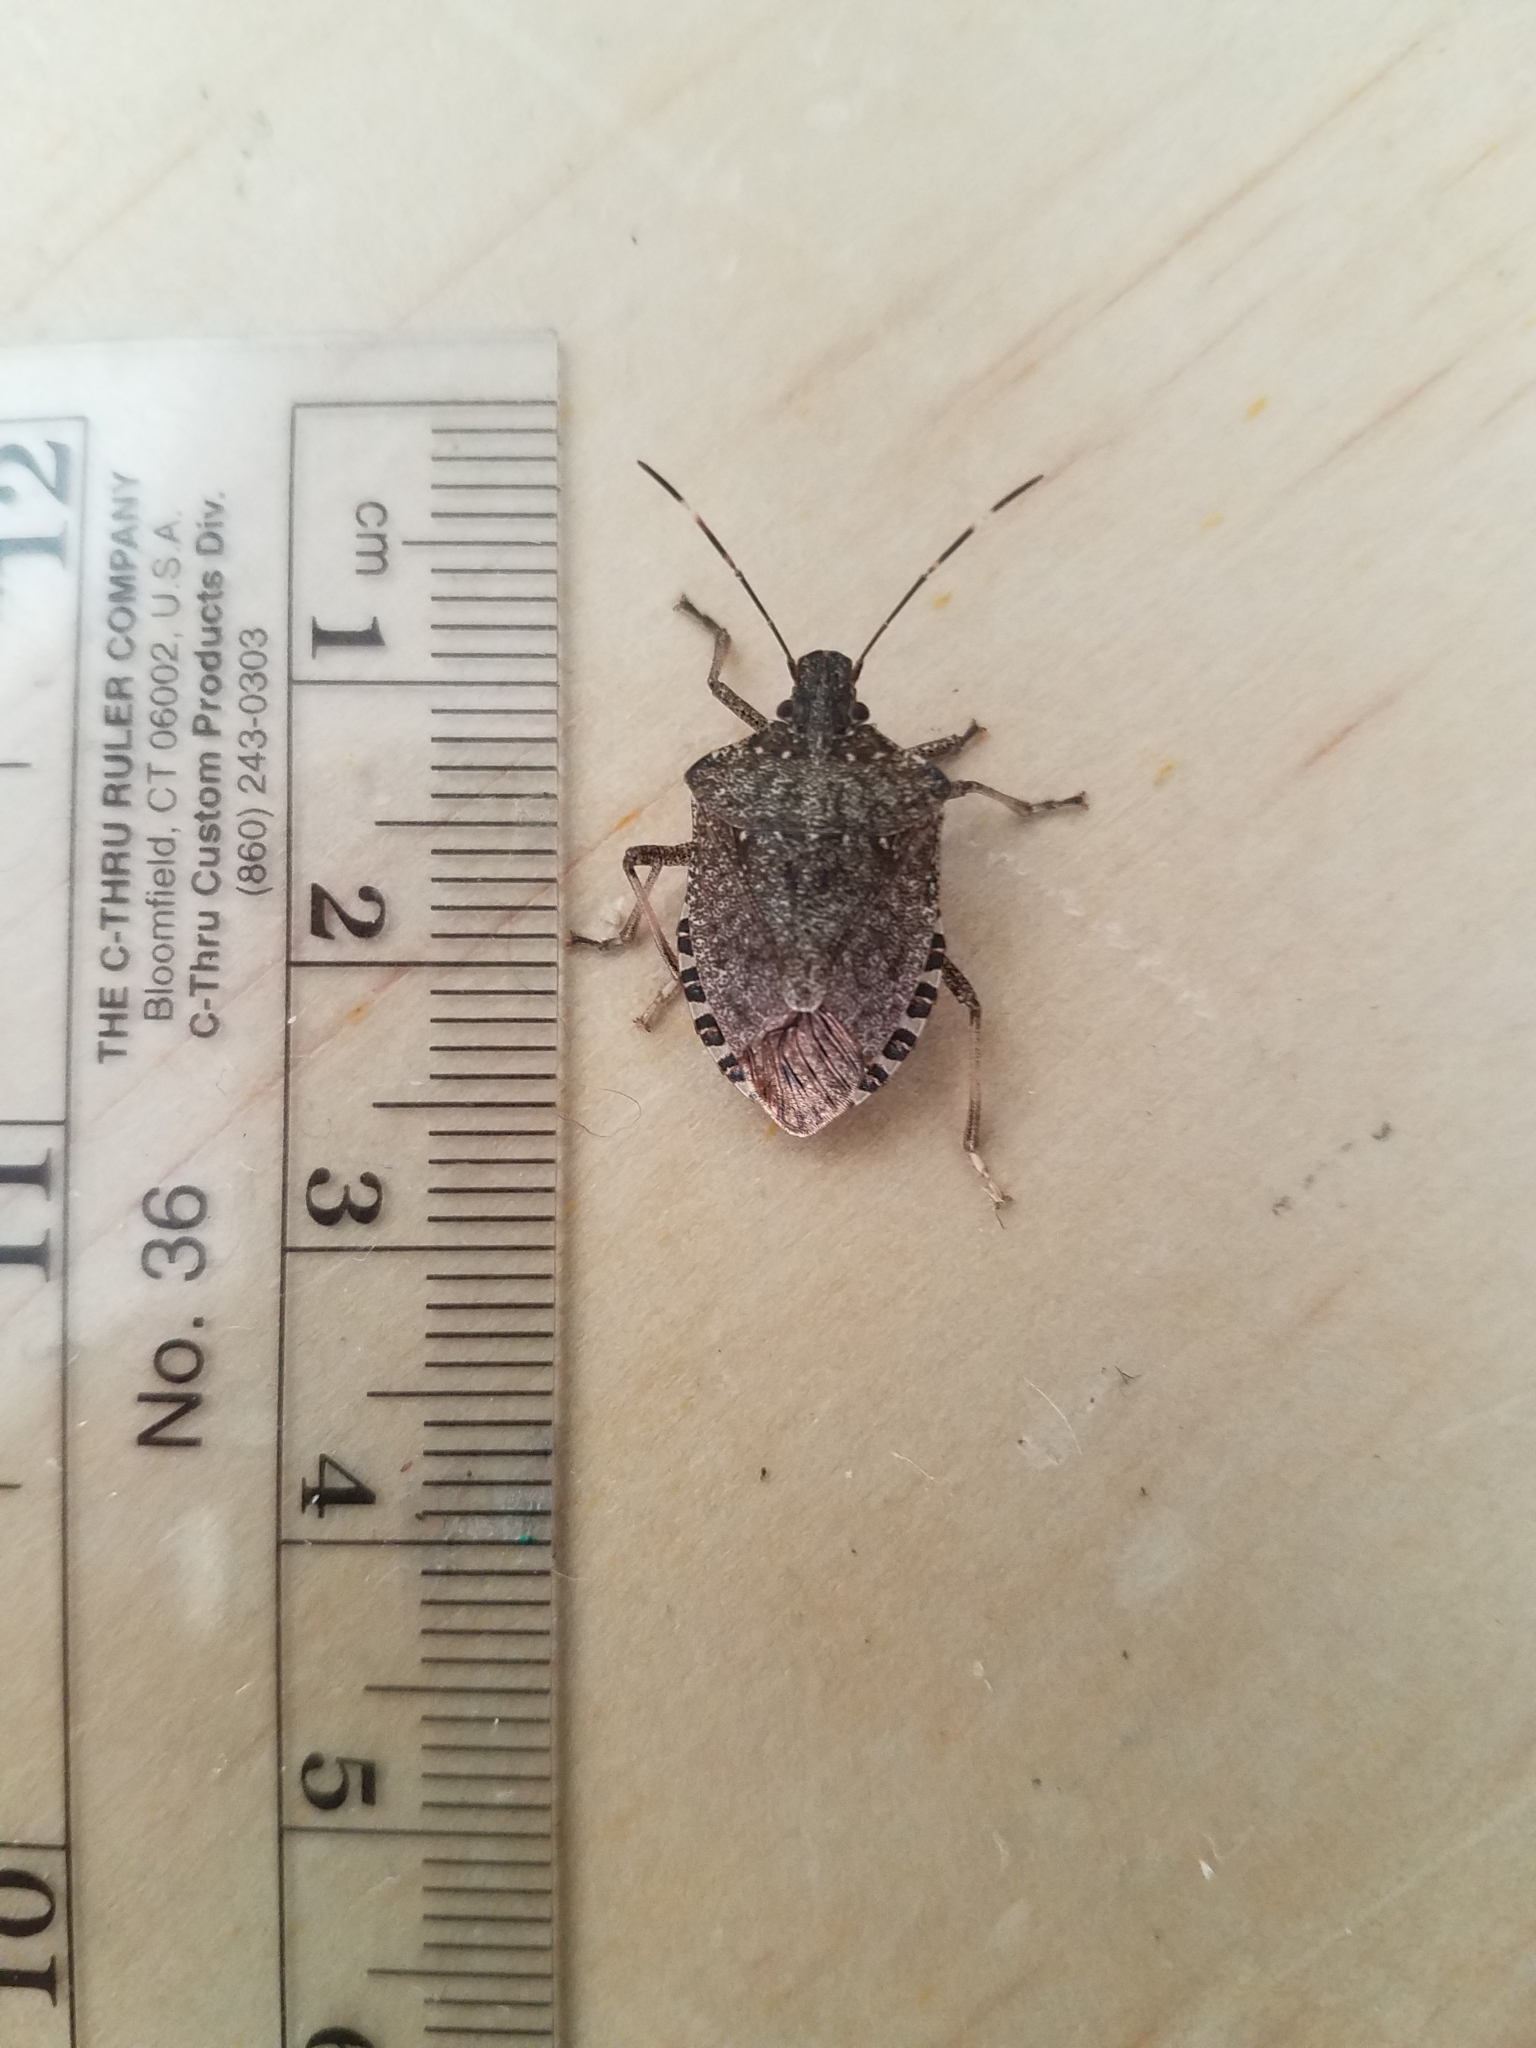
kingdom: Animalia
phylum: Arthropoda
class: Insecta
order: Hemiptera
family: Pentatomidae
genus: Halyomorpha
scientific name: Halyomorpha halys
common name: Brown marmorated stink bug
